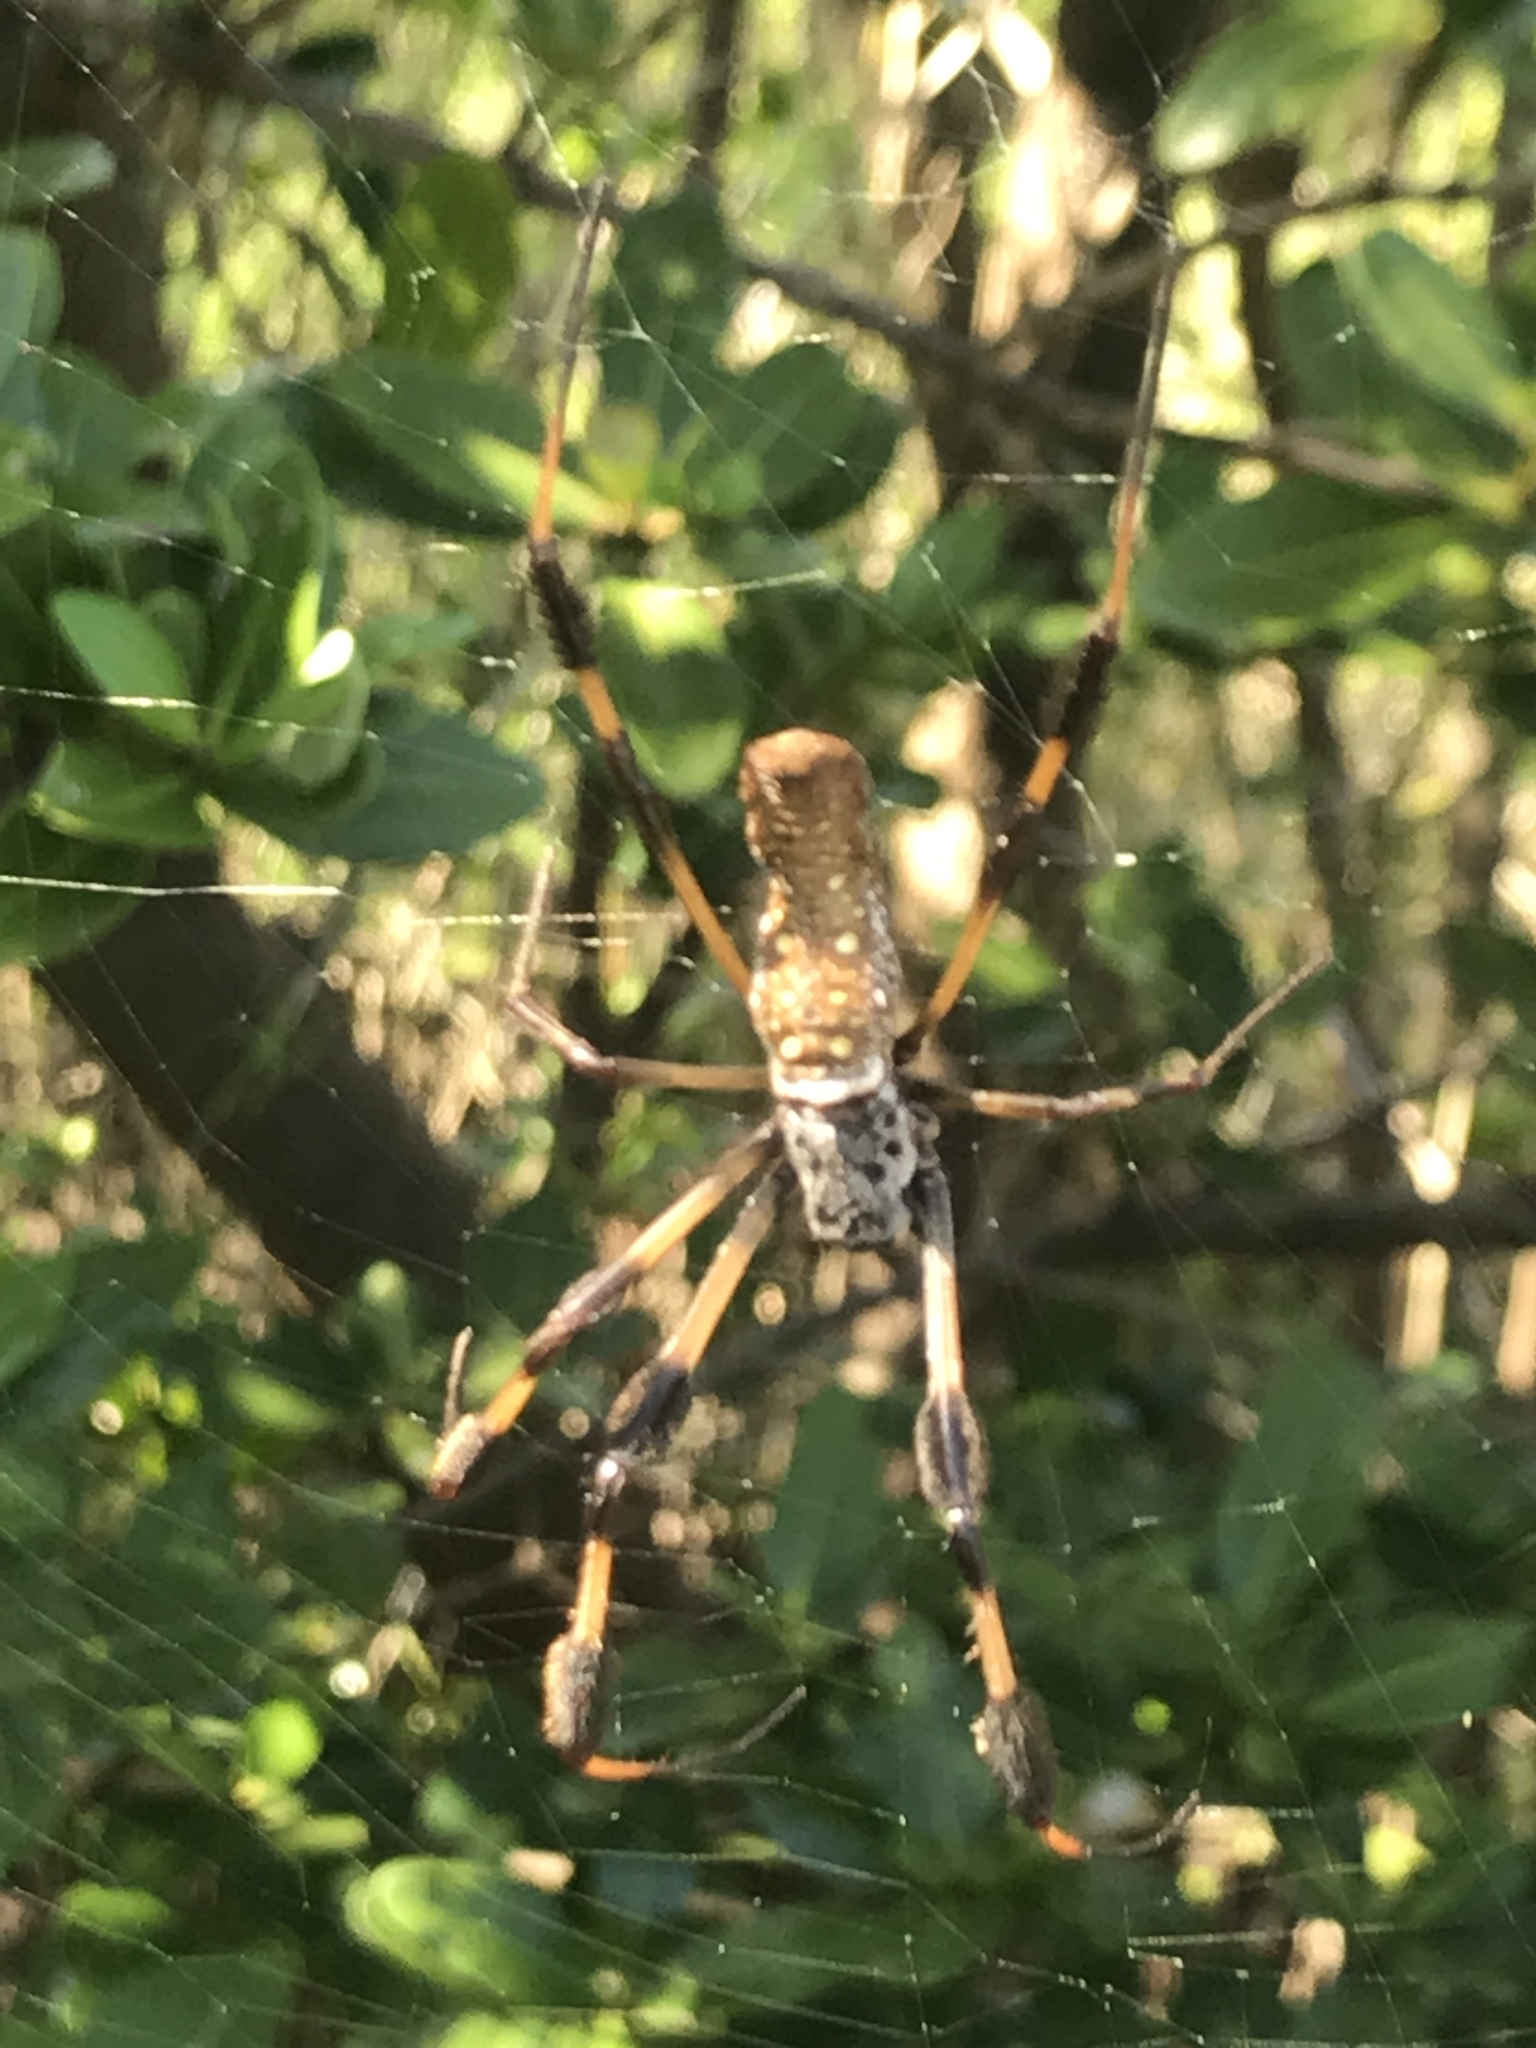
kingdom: Animalia
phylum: Arthropoda
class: Arachnida
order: Araneae
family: Araneidae
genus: Trichonephila
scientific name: Trichonephila clavipes
